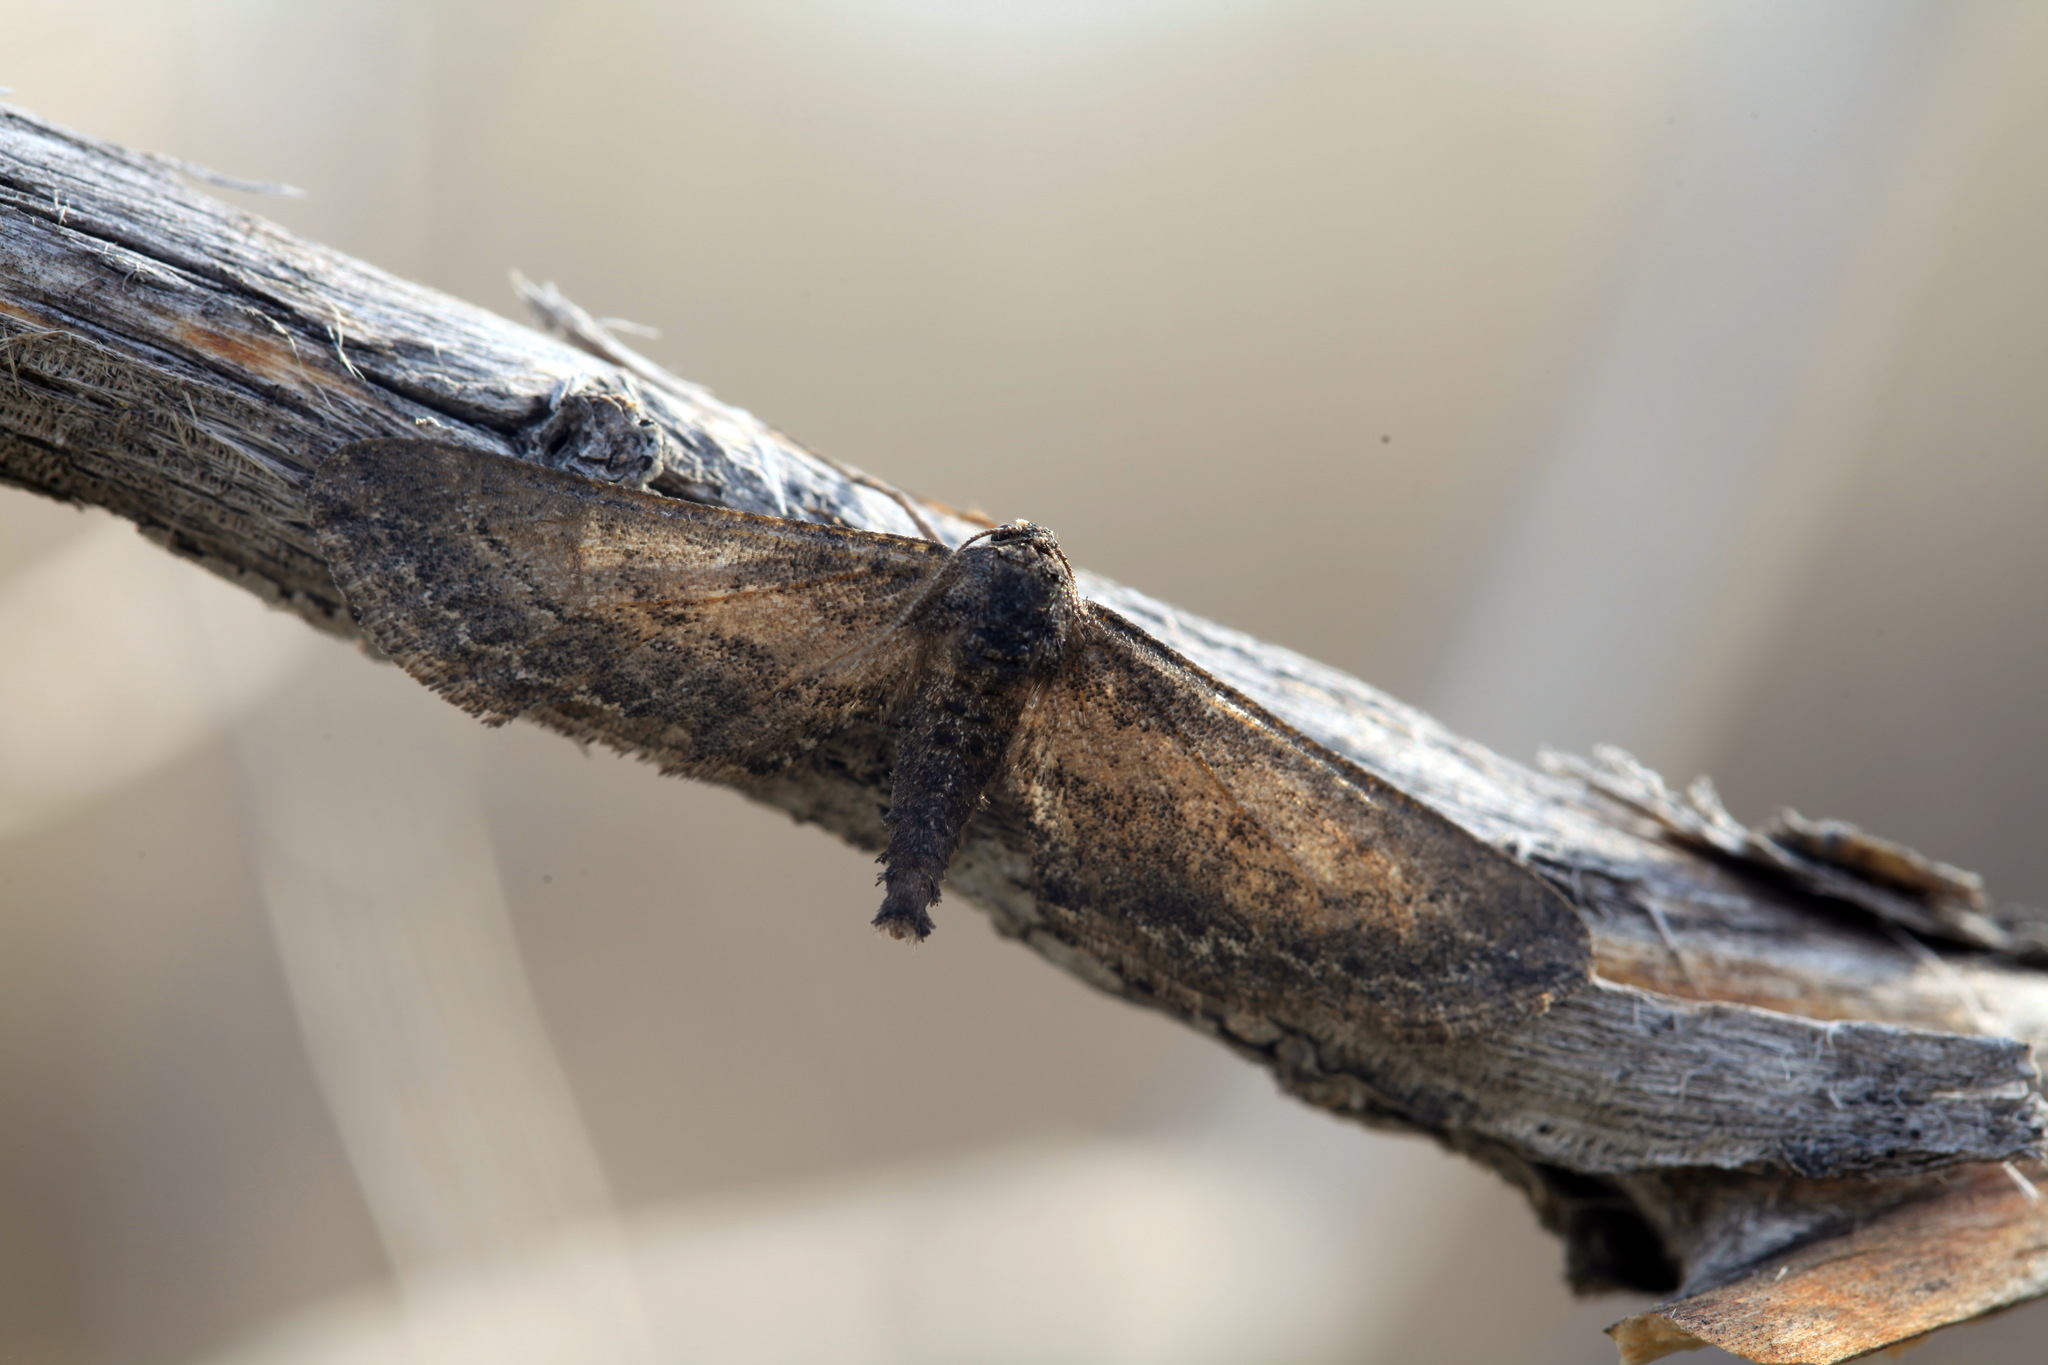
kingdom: Animalia
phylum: Arthropoda
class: Insecta
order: Lepidoptera
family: Geometridae
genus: Semidesertobia
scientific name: Semidesertobia
